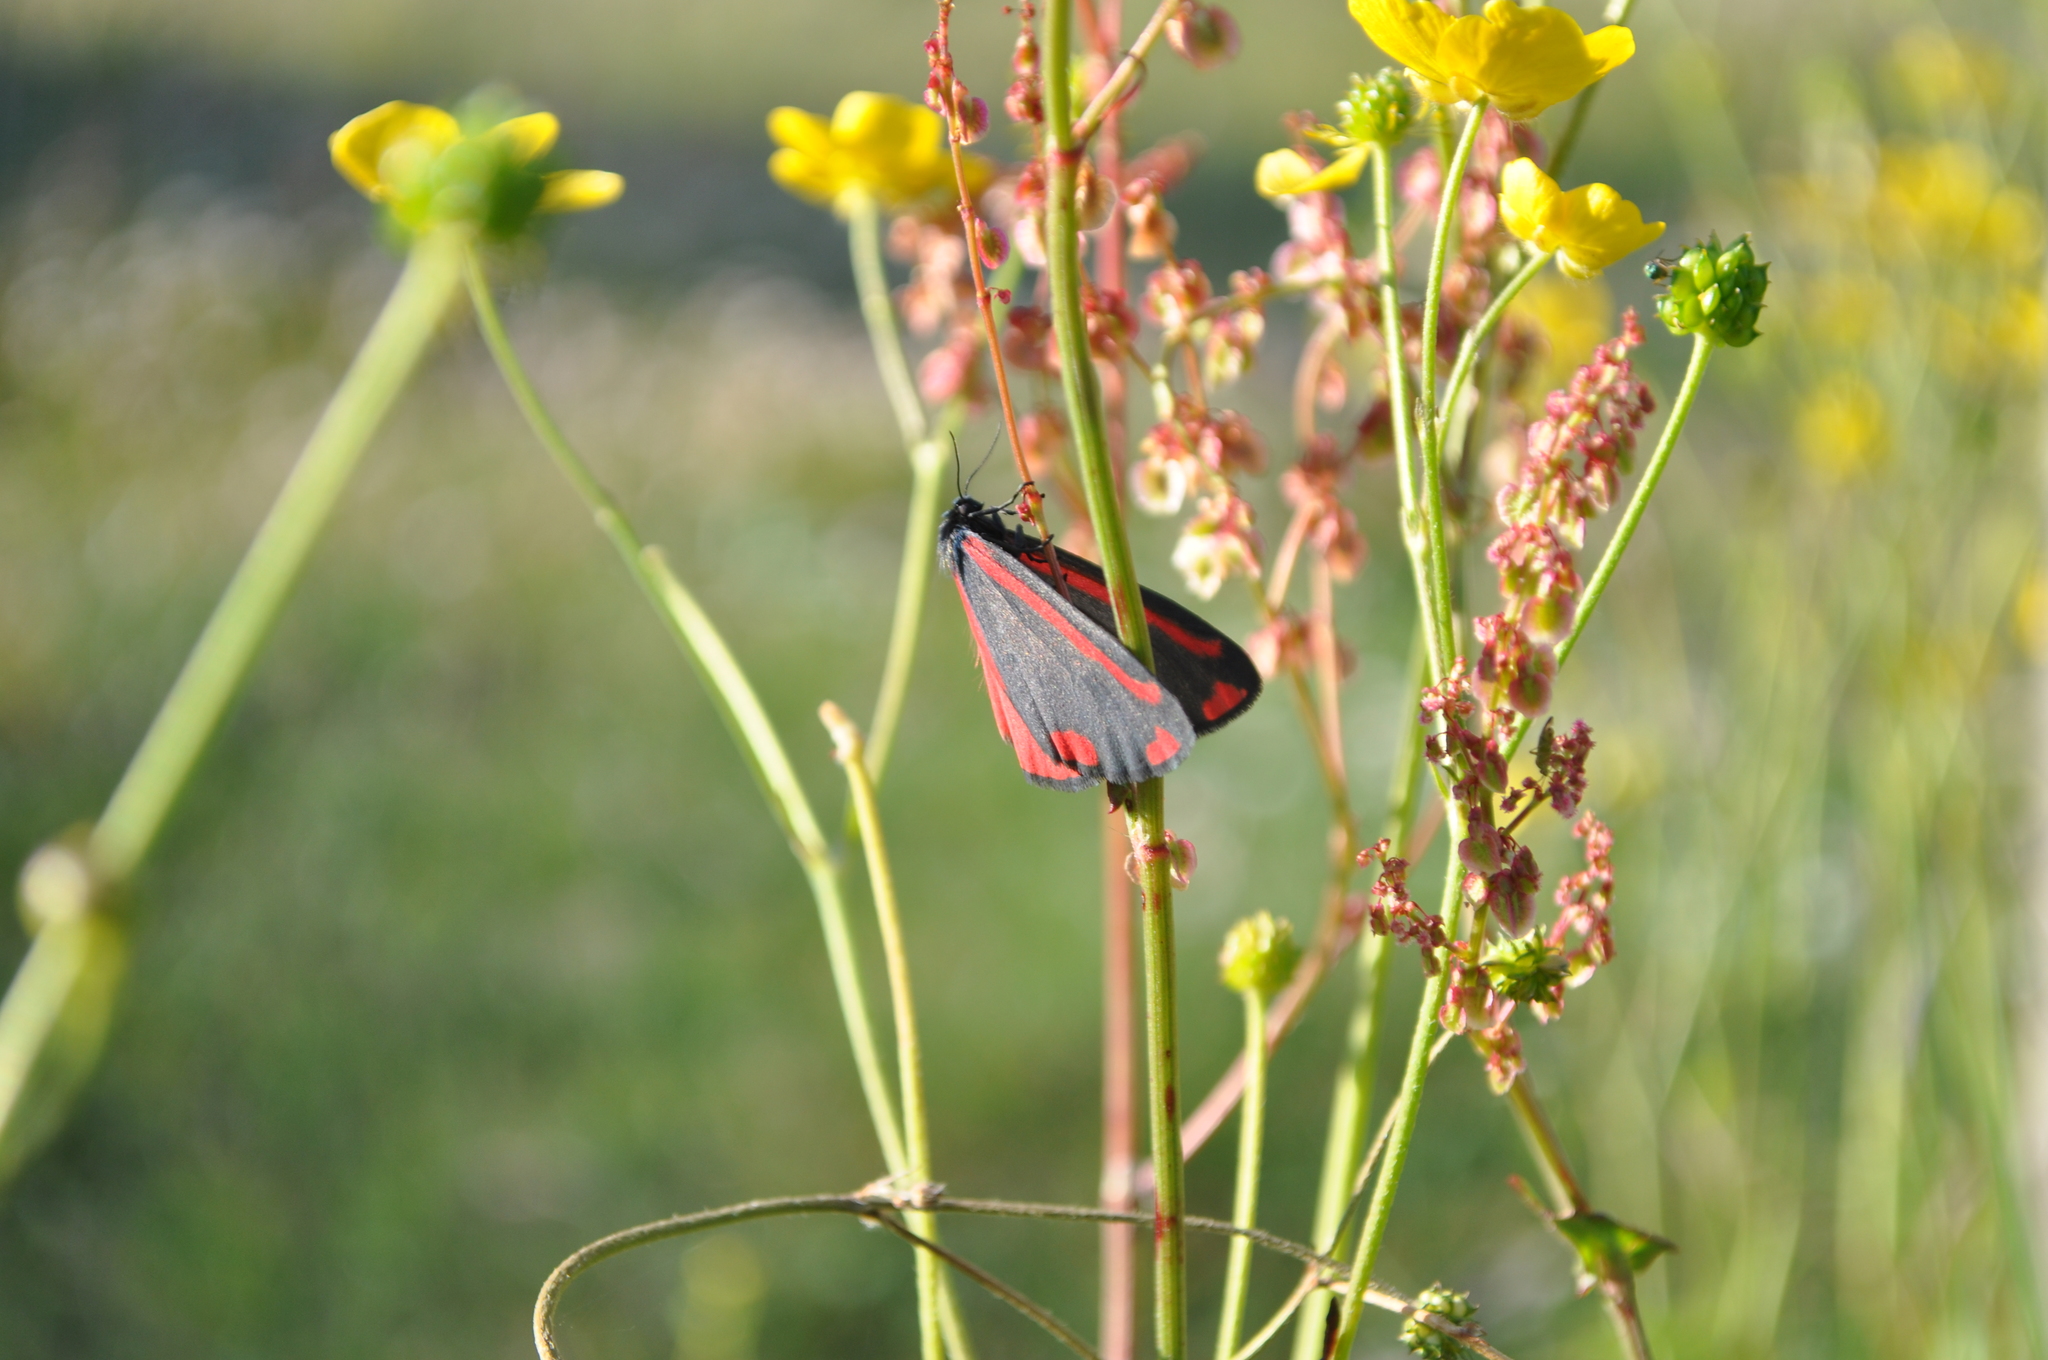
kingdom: Animalia
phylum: Arthropoda
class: Insecta
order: Lepidoptera
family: Erebidae
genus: Tyria
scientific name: Tyria jacobaeae
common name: Cinnabar
